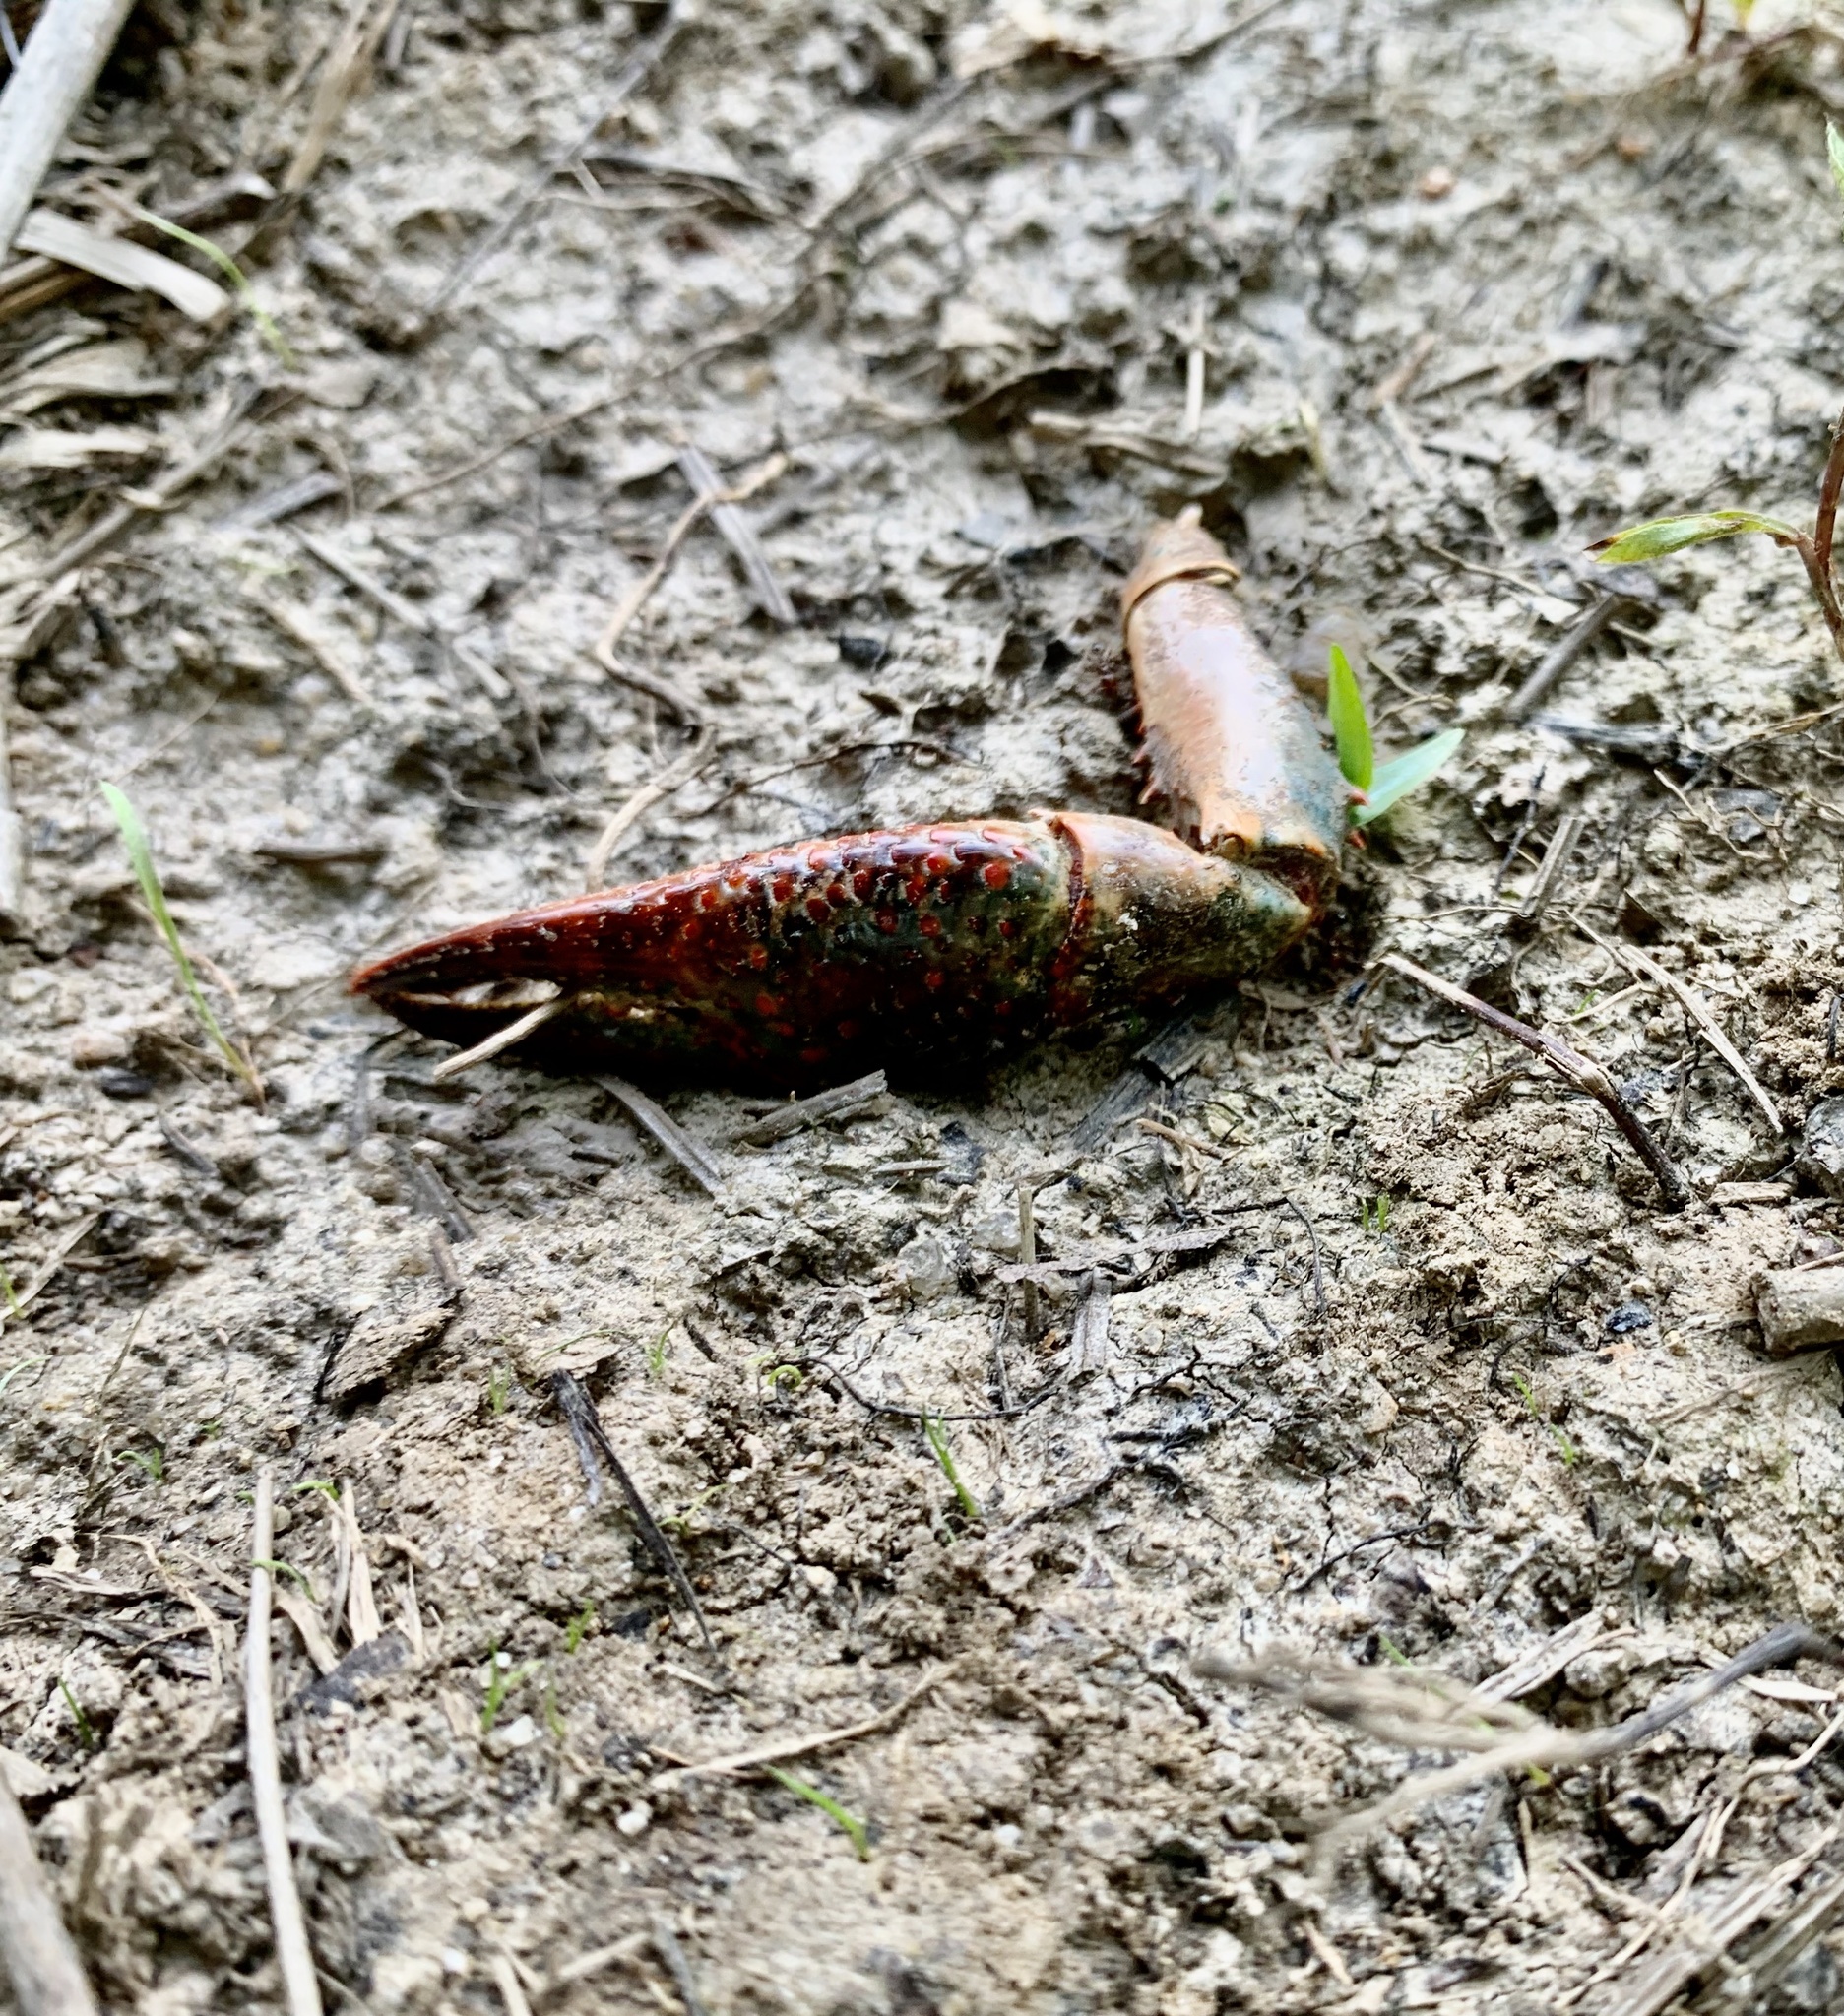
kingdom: Animalia
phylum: Arthropoda
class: Malacostraca
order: Decapoda
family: Cambaridae
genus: Procambarus
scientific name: Procambarus clarkii
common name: Red swamp crayfish
